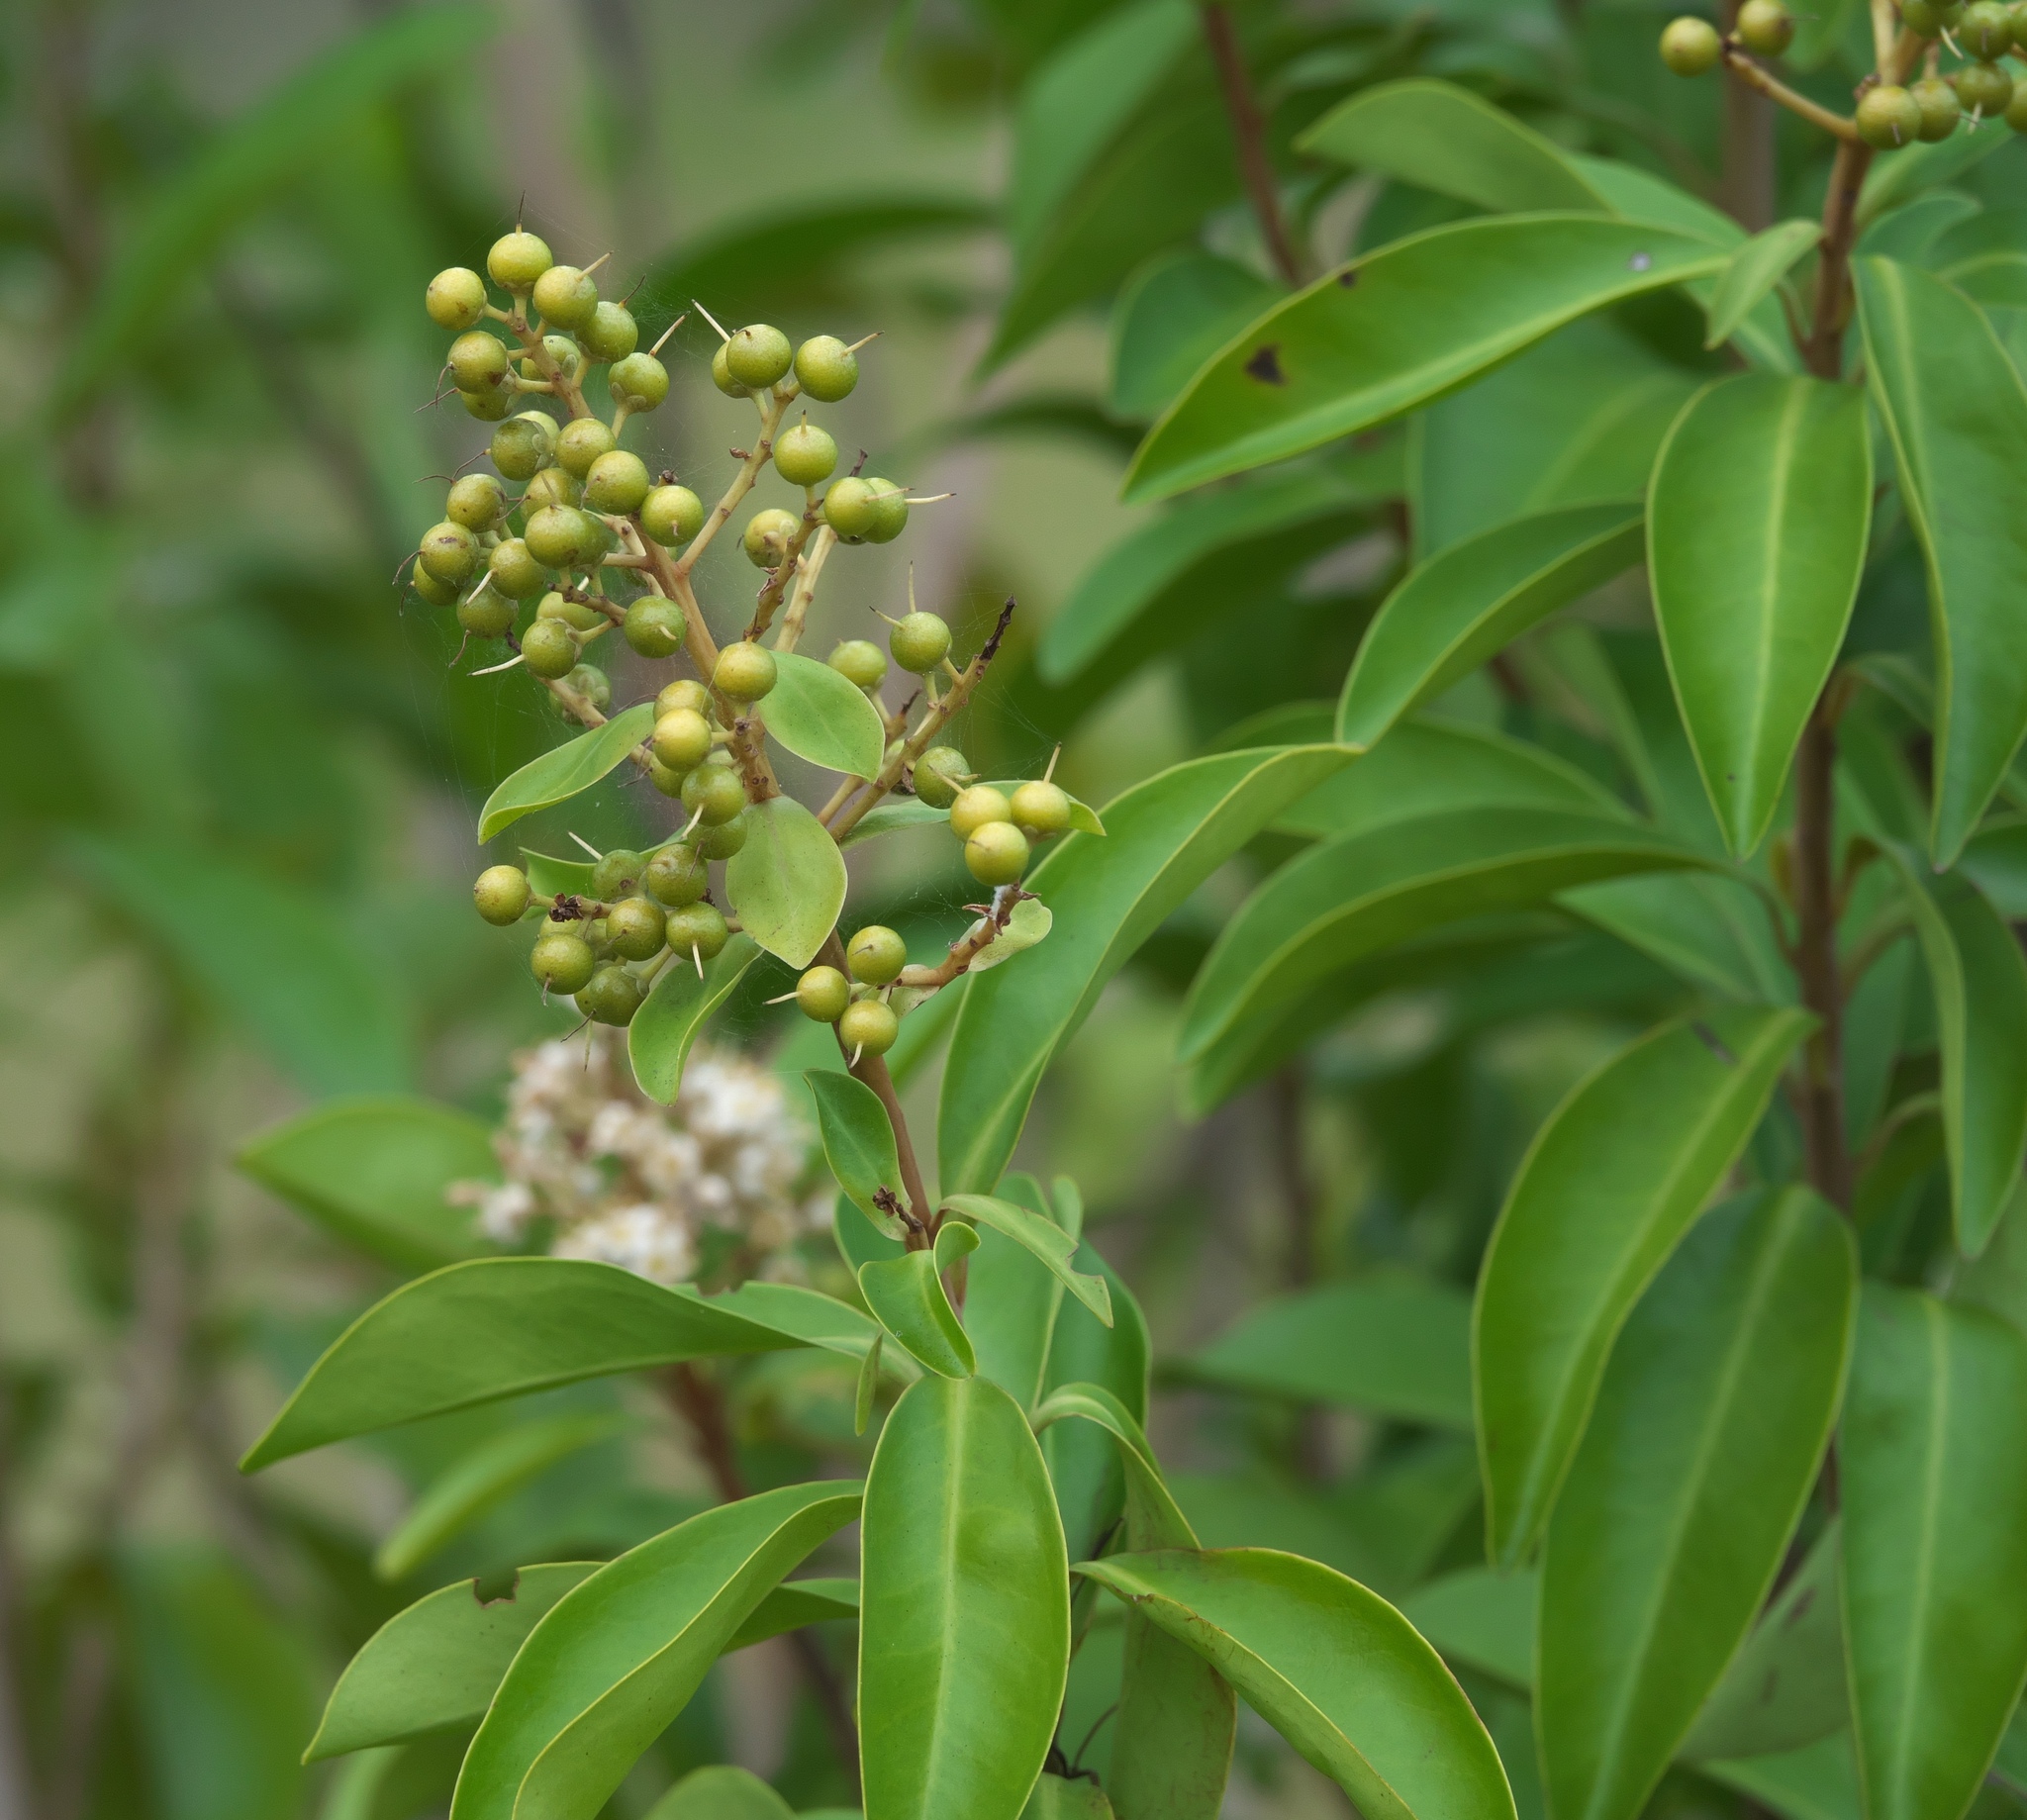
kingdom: Plantae
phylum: Tracheophyta
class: Magnoliopsida
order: Ericales
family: Primulaceae
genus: Ardisia
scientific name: Ardisia escallonioides
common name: Island marlberry
